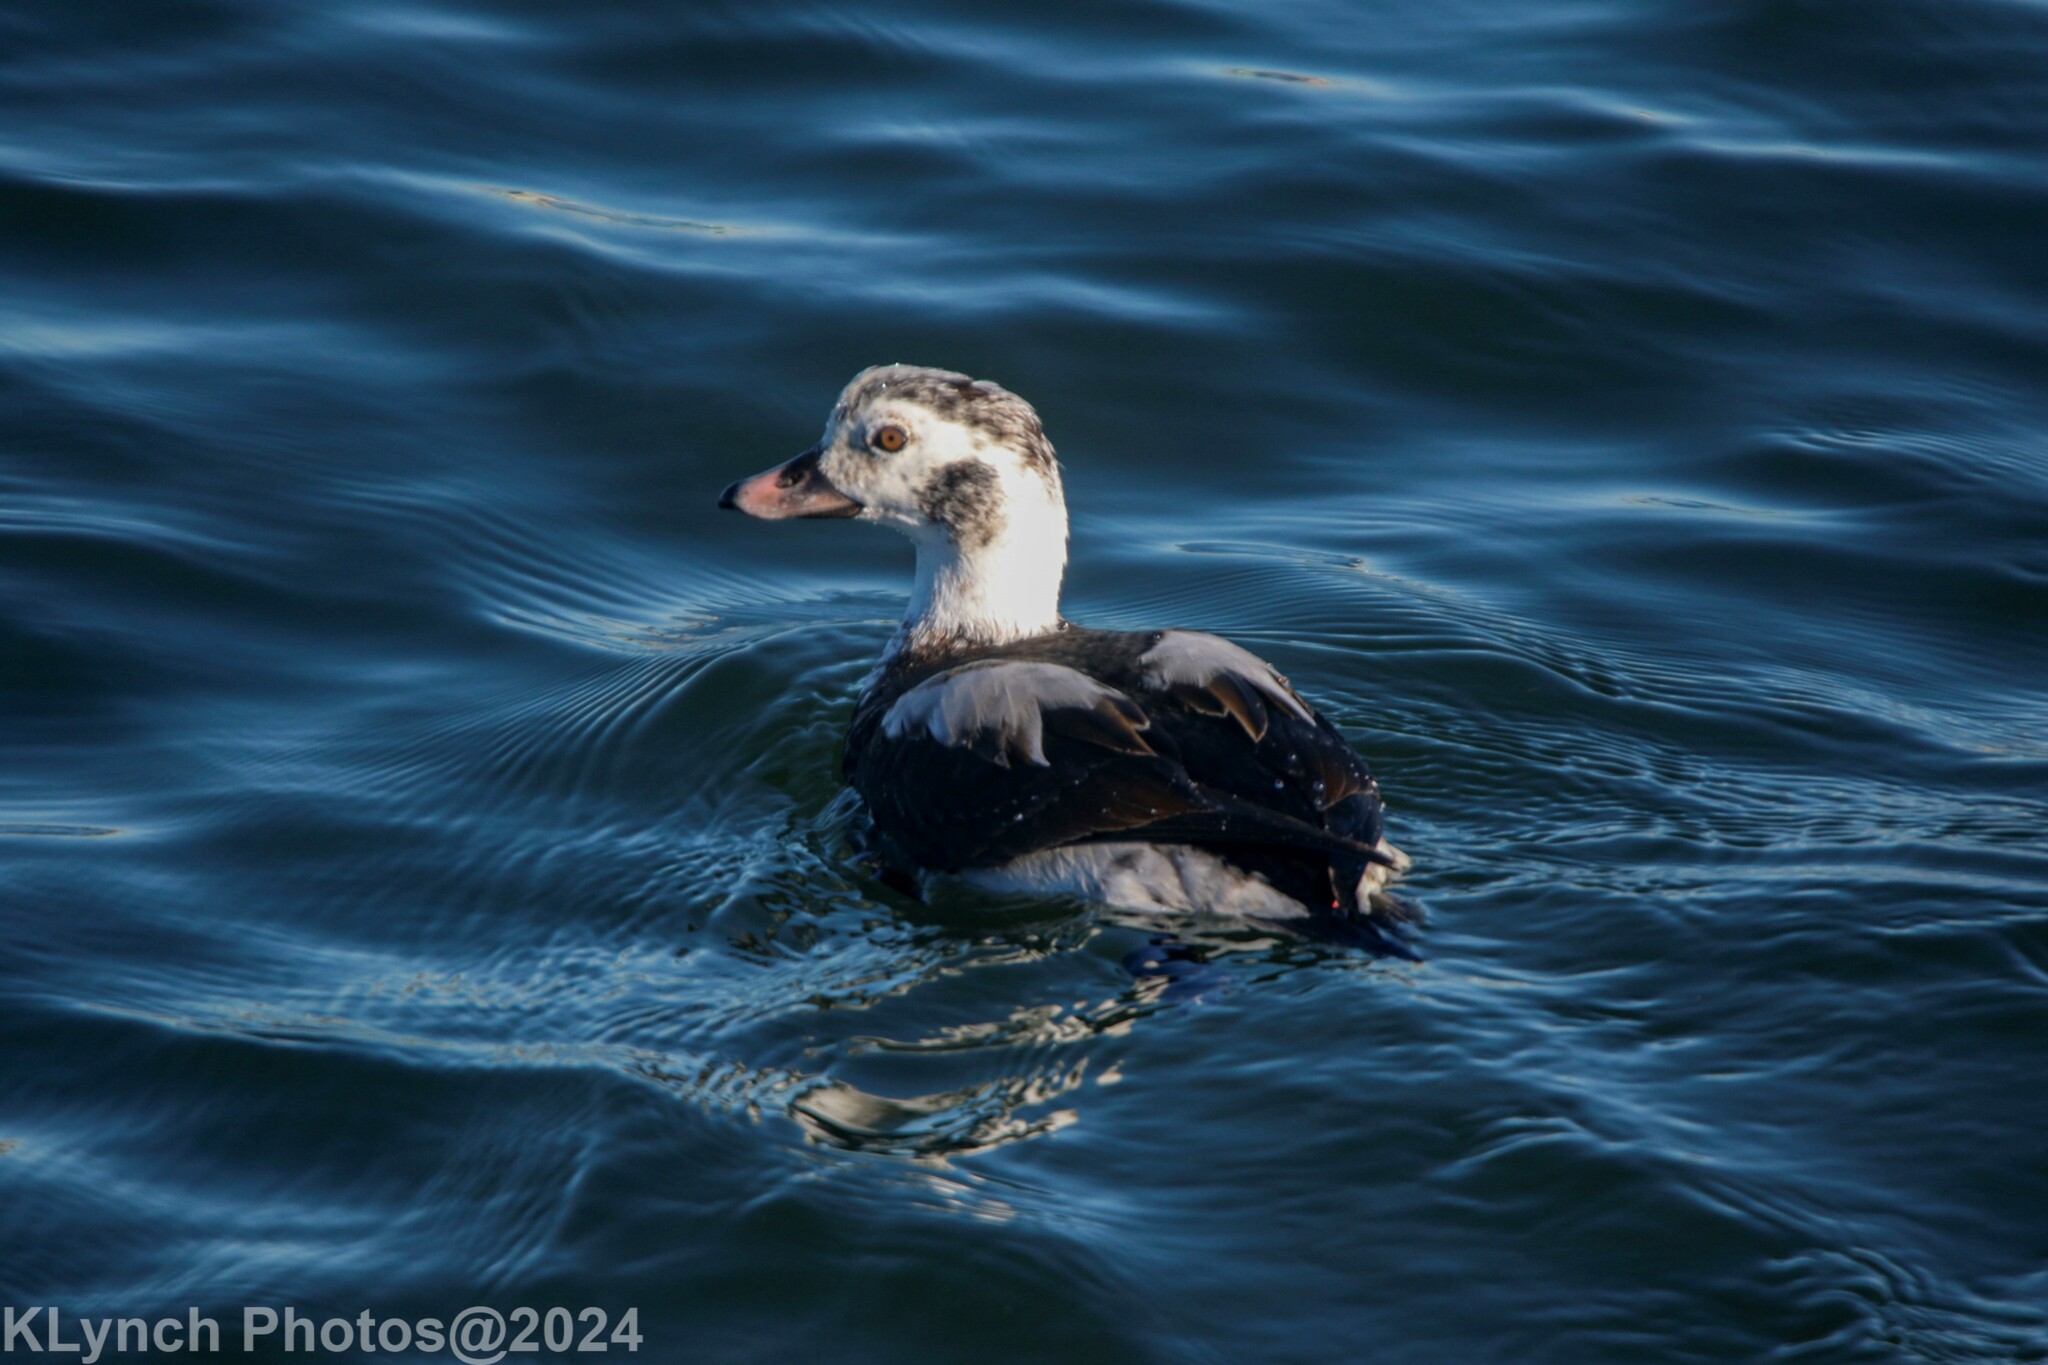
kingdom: Animalia
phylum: Chordata
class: Aves
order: Anseriformes
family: Anatidae
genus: Clangula
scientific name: Clangula hyemalis
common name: Long-tailed duck
